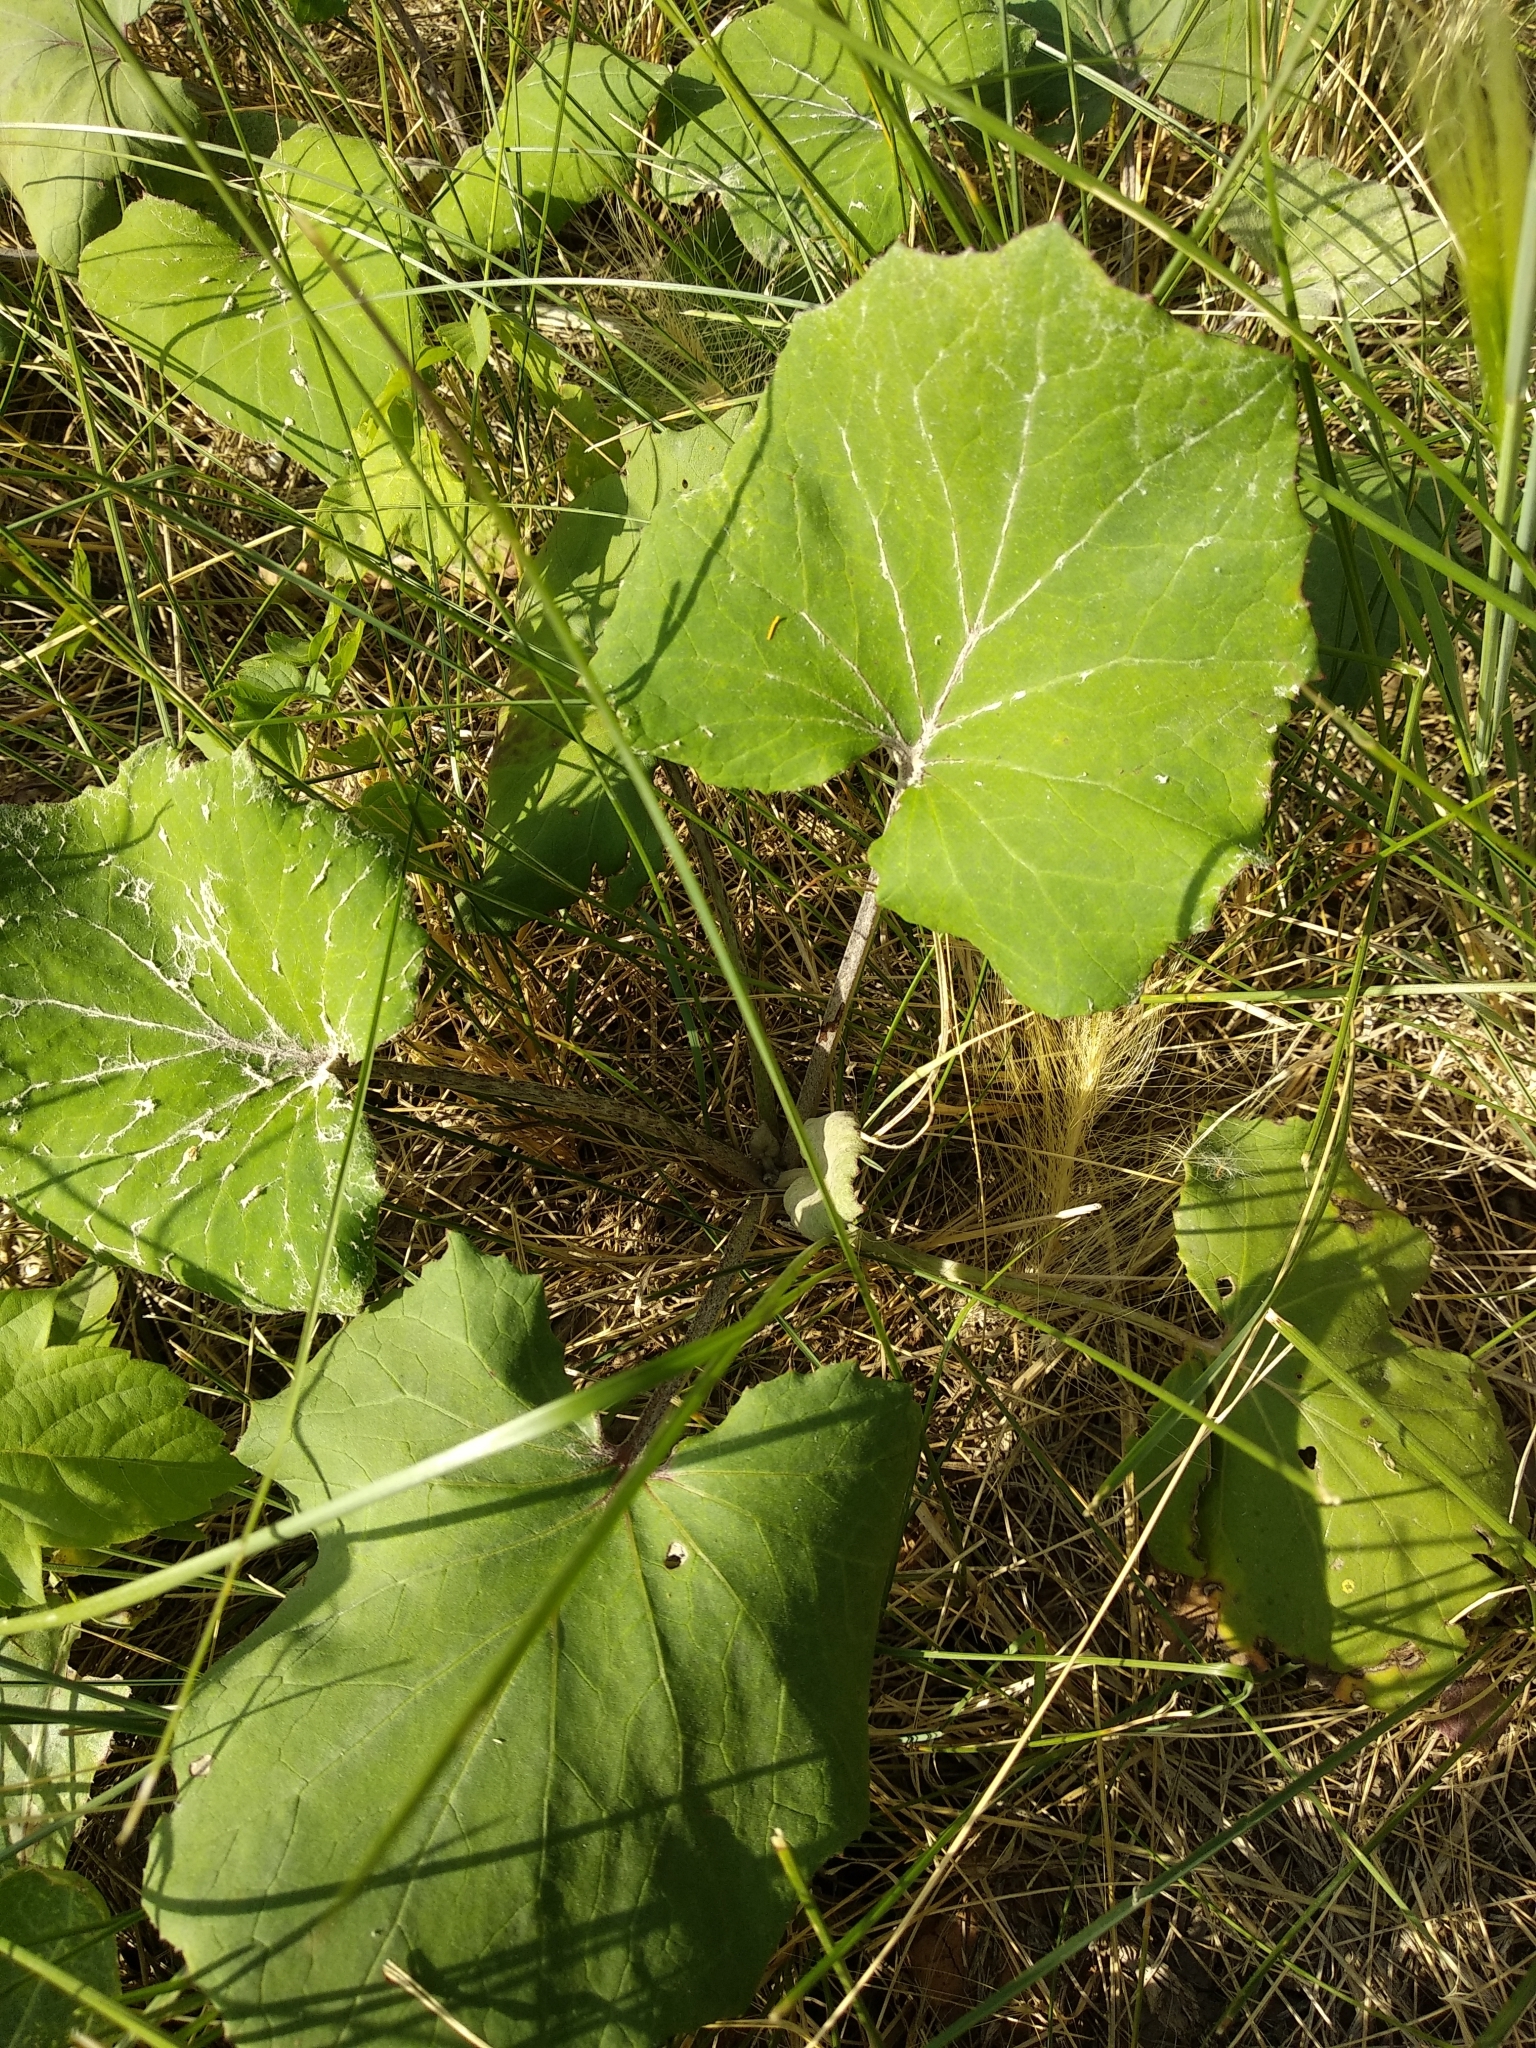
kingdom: Plantae
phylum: Tracheophyta
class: Magnoliopsida
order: Asterales
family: Asteraceae
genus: Tussilago
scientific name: Tussilago farfara
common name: Coltsfoot
